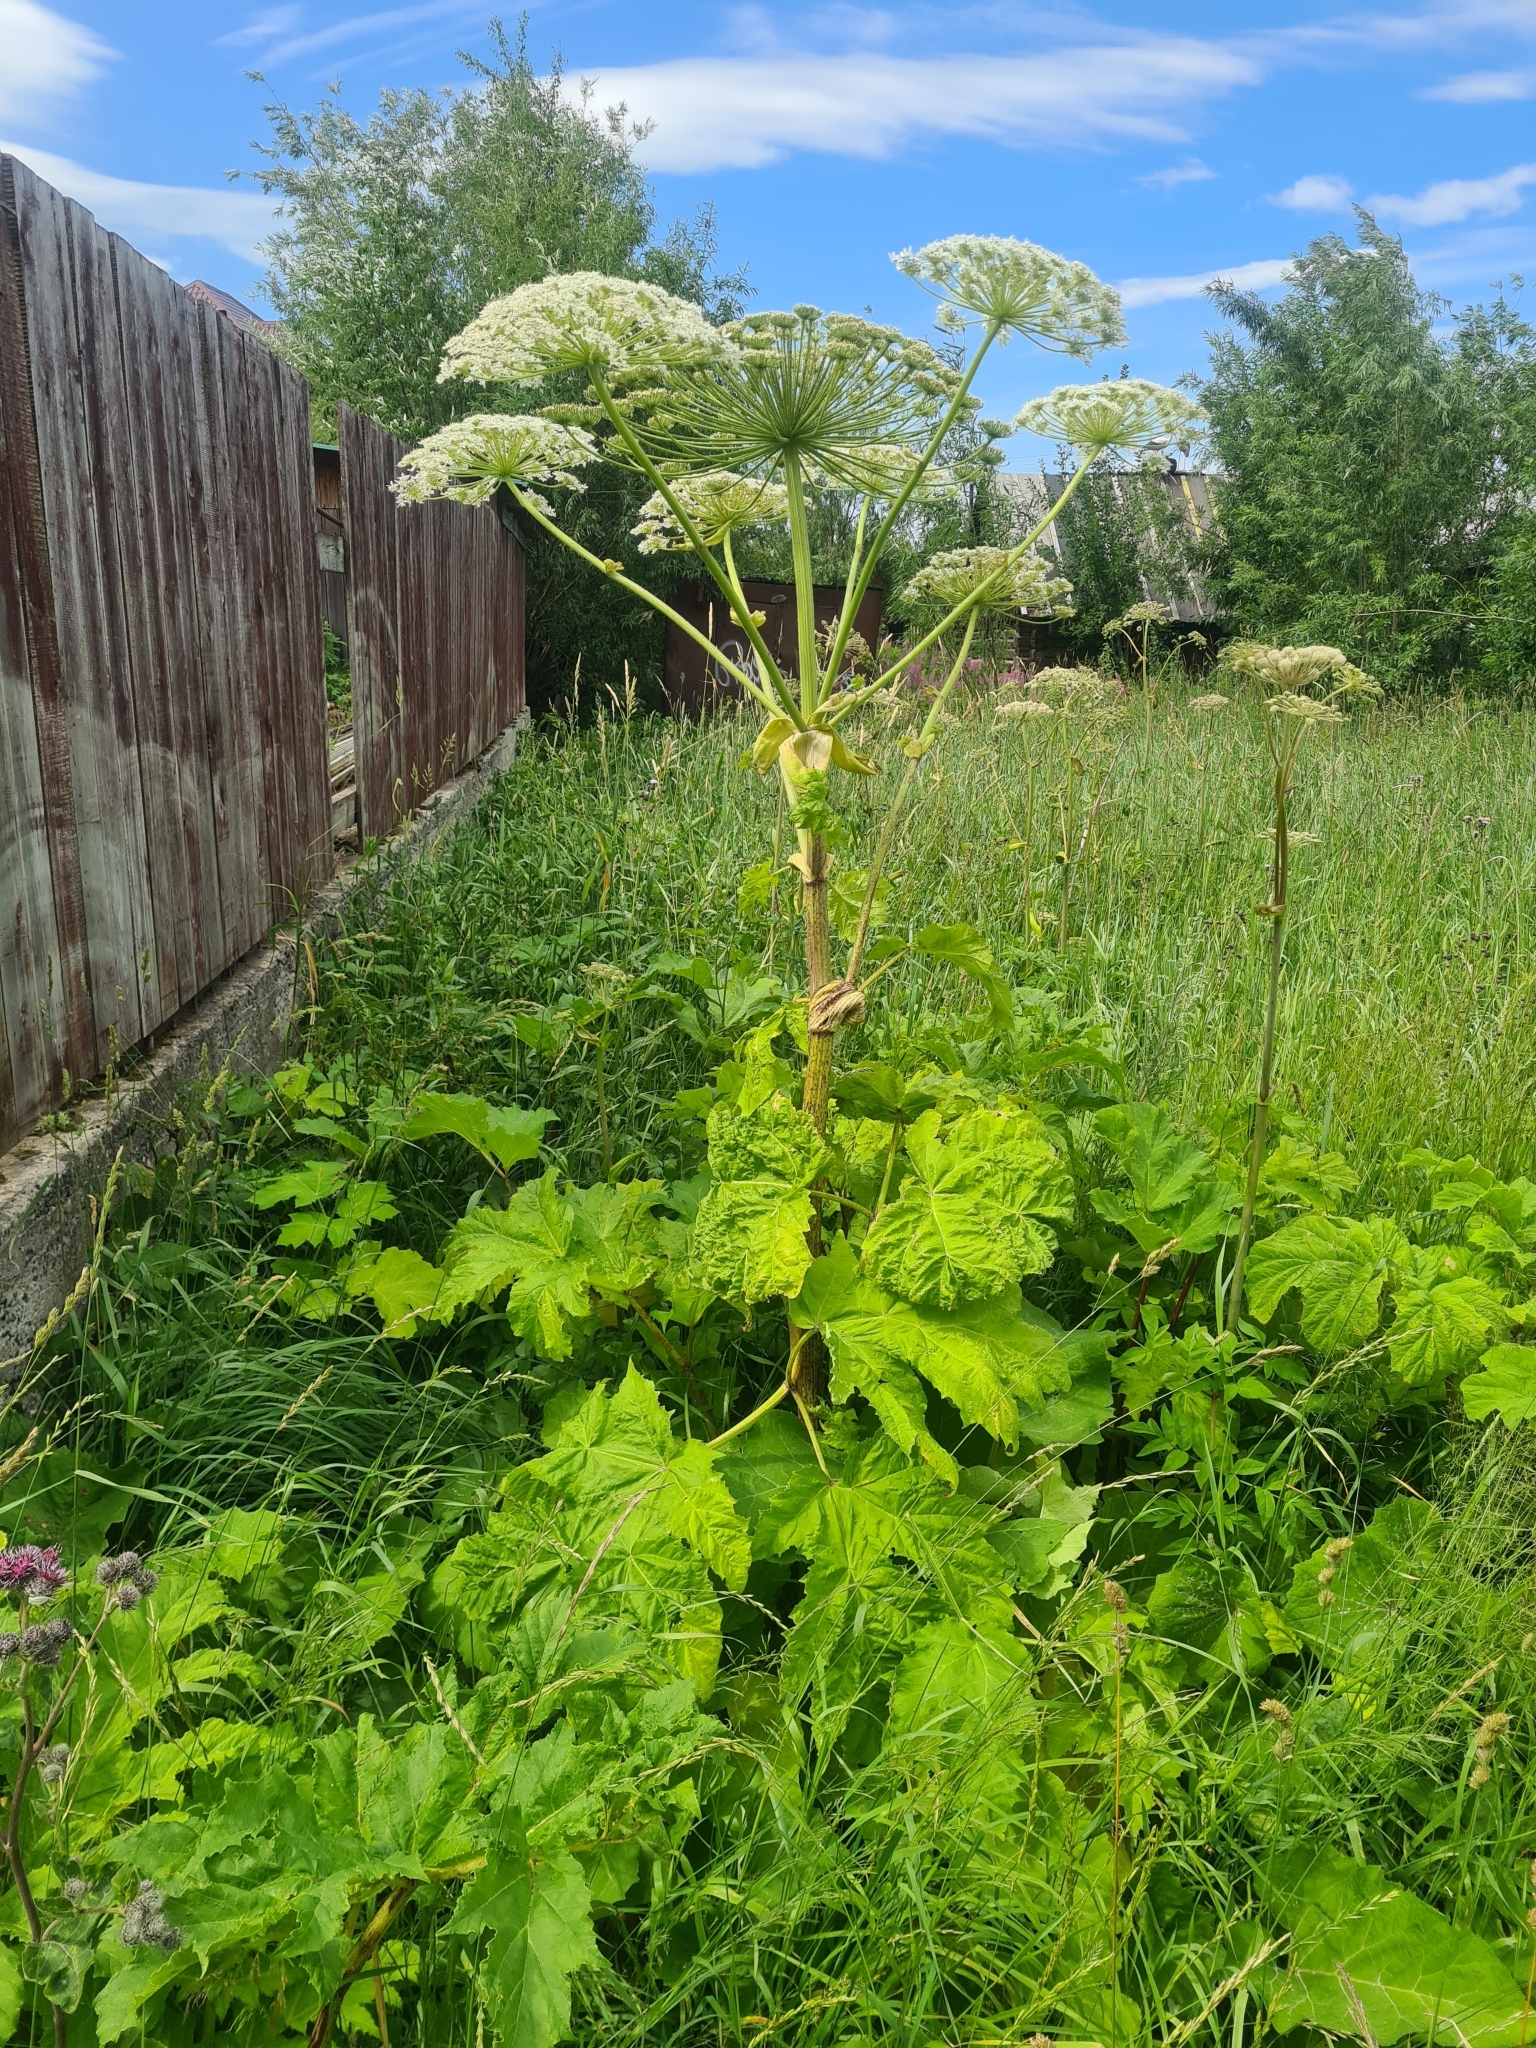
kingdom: Plantae
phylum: Tracheophyta
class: Magnoliopsida
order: Apiales
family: Apiaceae
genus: Heracleum
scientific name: Heracleum sosnowskyi
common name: Sosnowsky's hogweed
